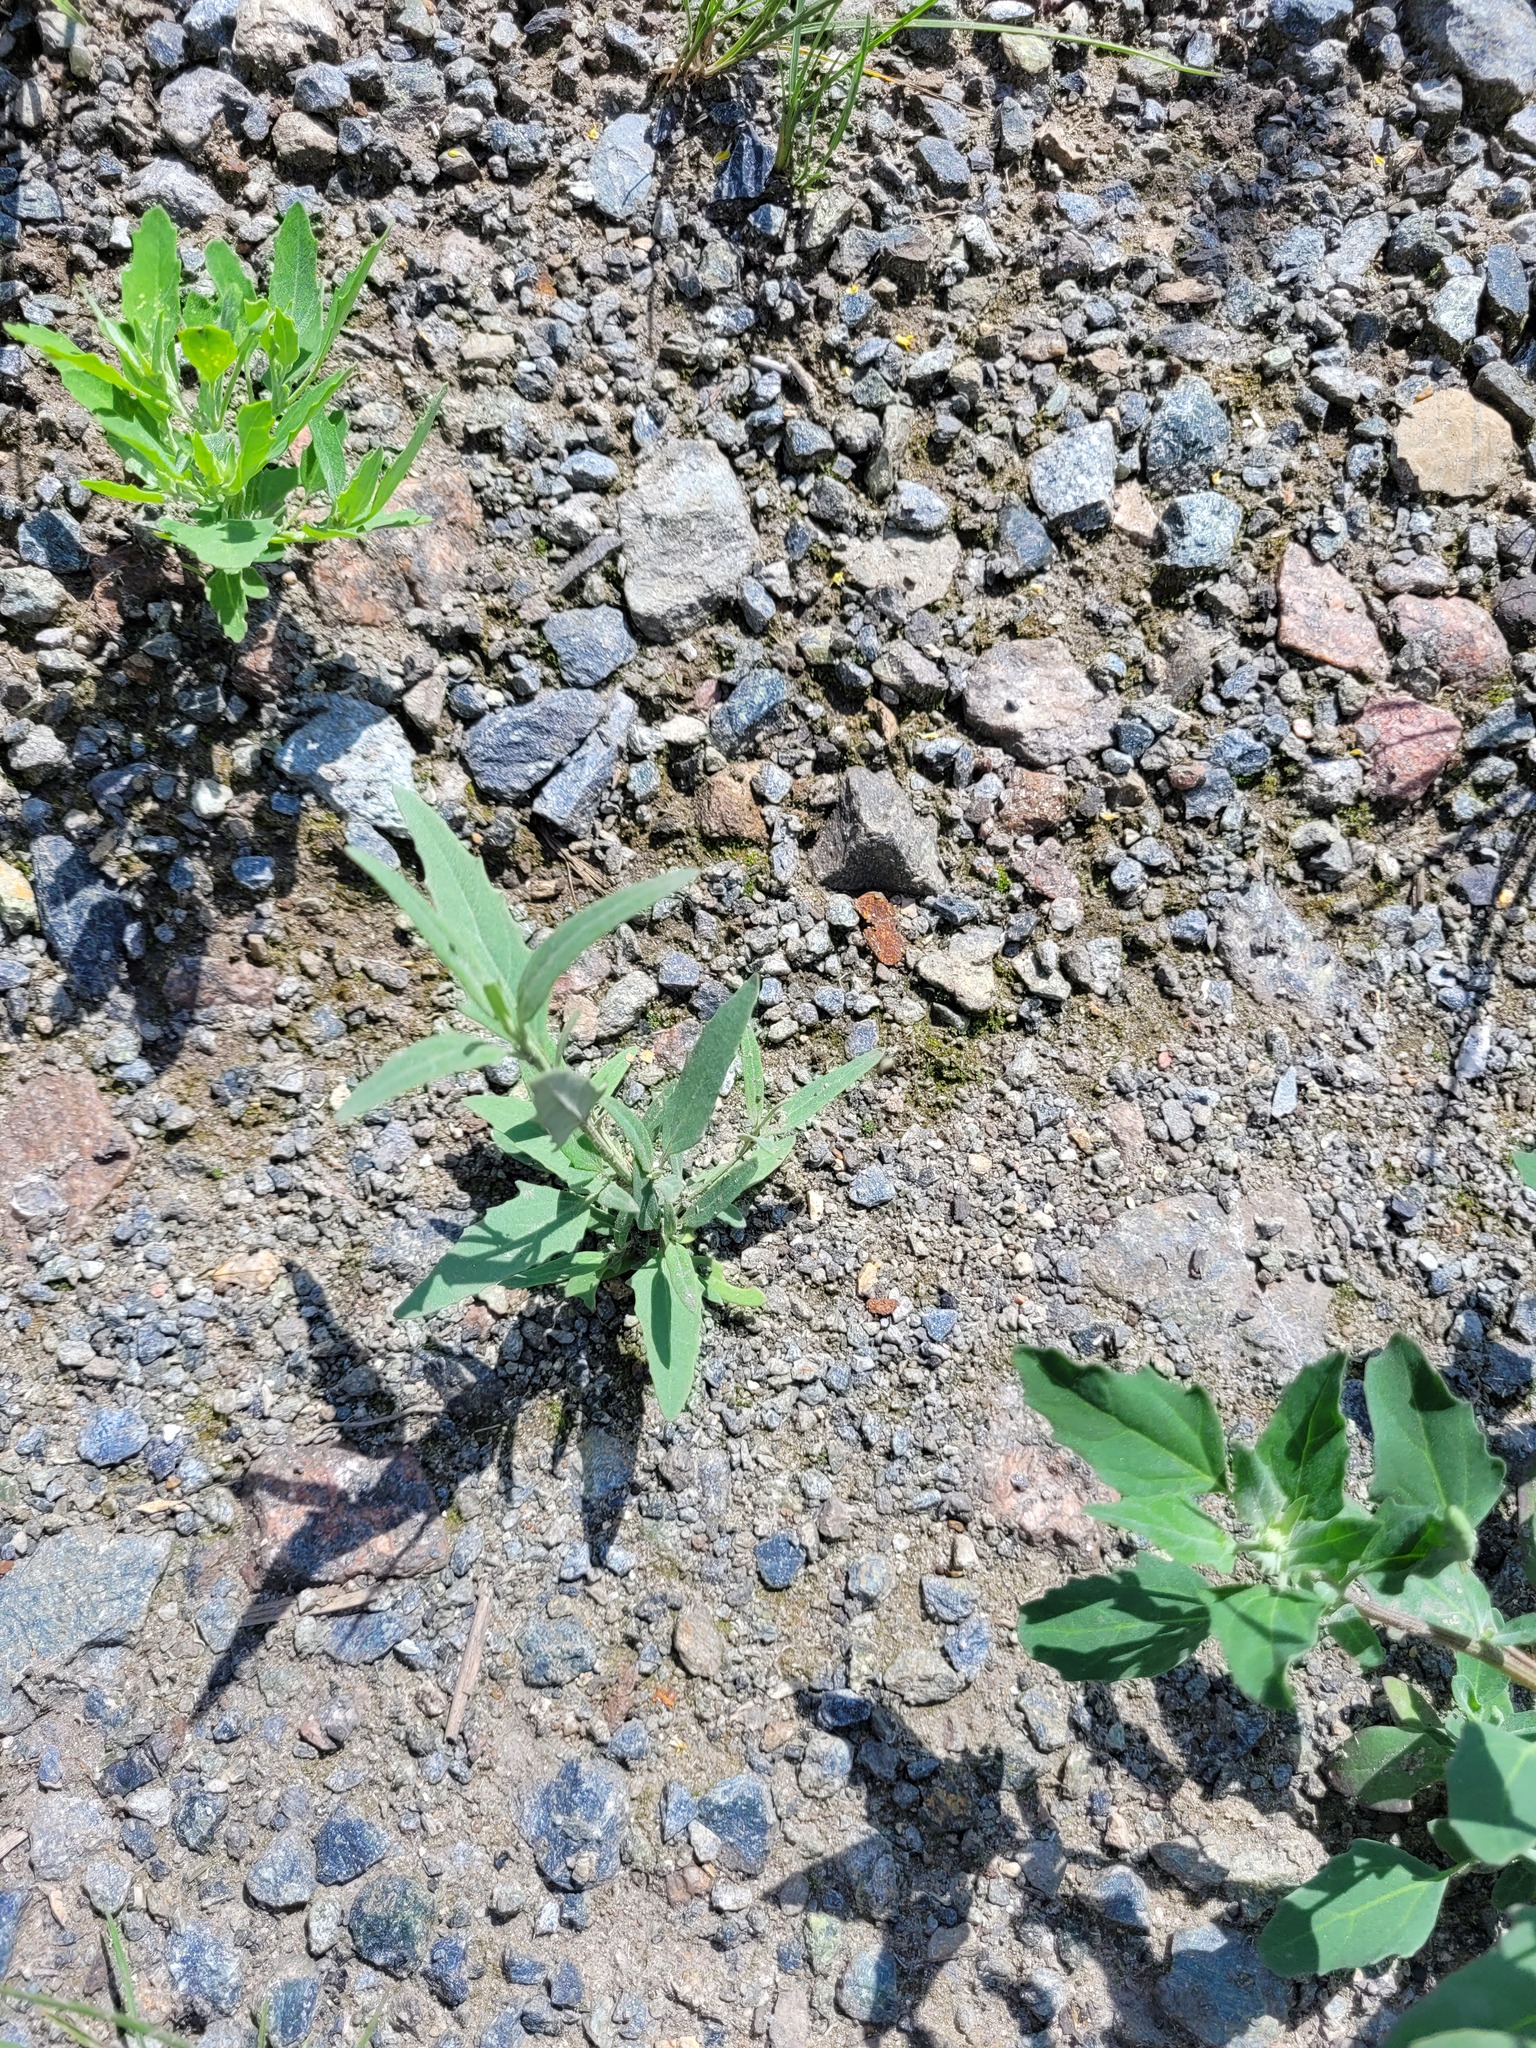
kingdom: Plantae
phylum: Tracheophyta
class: Magnoliopsida
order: Caryophyllales
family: Amaranthaceae
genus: Atriplex
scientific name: Atriplex oblongifolia
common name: Oblongleaf orache
